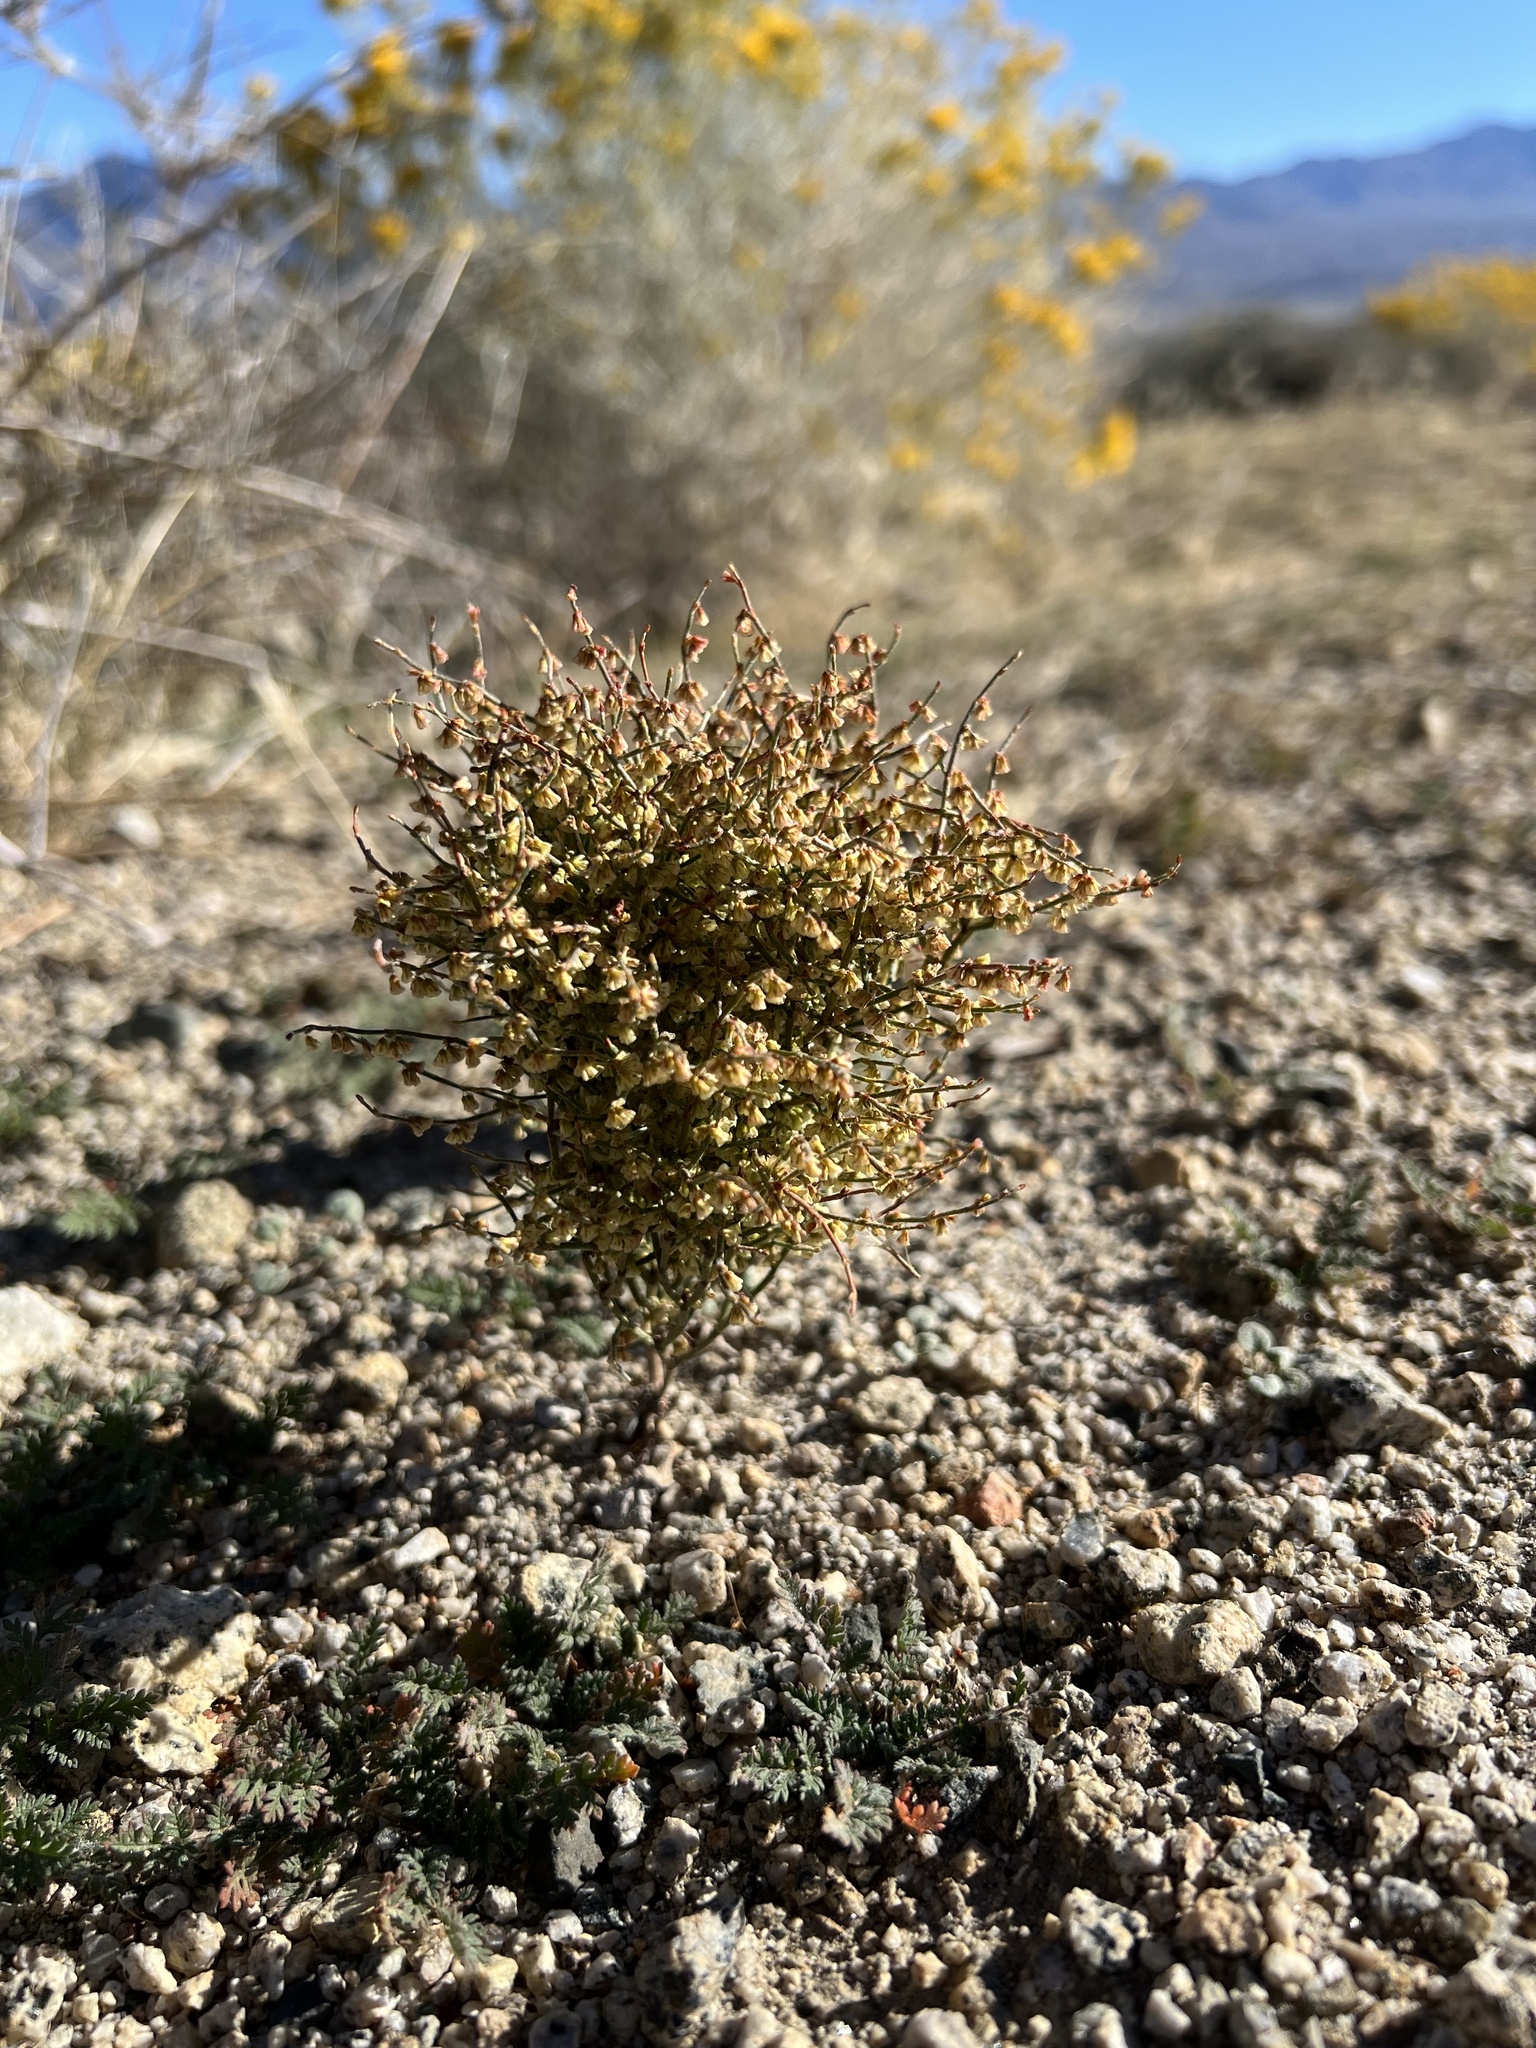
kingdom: Plantae
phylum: Tracheophyta
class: Magnoliopsida
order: Caryophyllales
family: Polygonaceae
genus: Eriogonum
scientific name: Eriogonum nidularium
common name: Bird's-nest wild buckwheat
